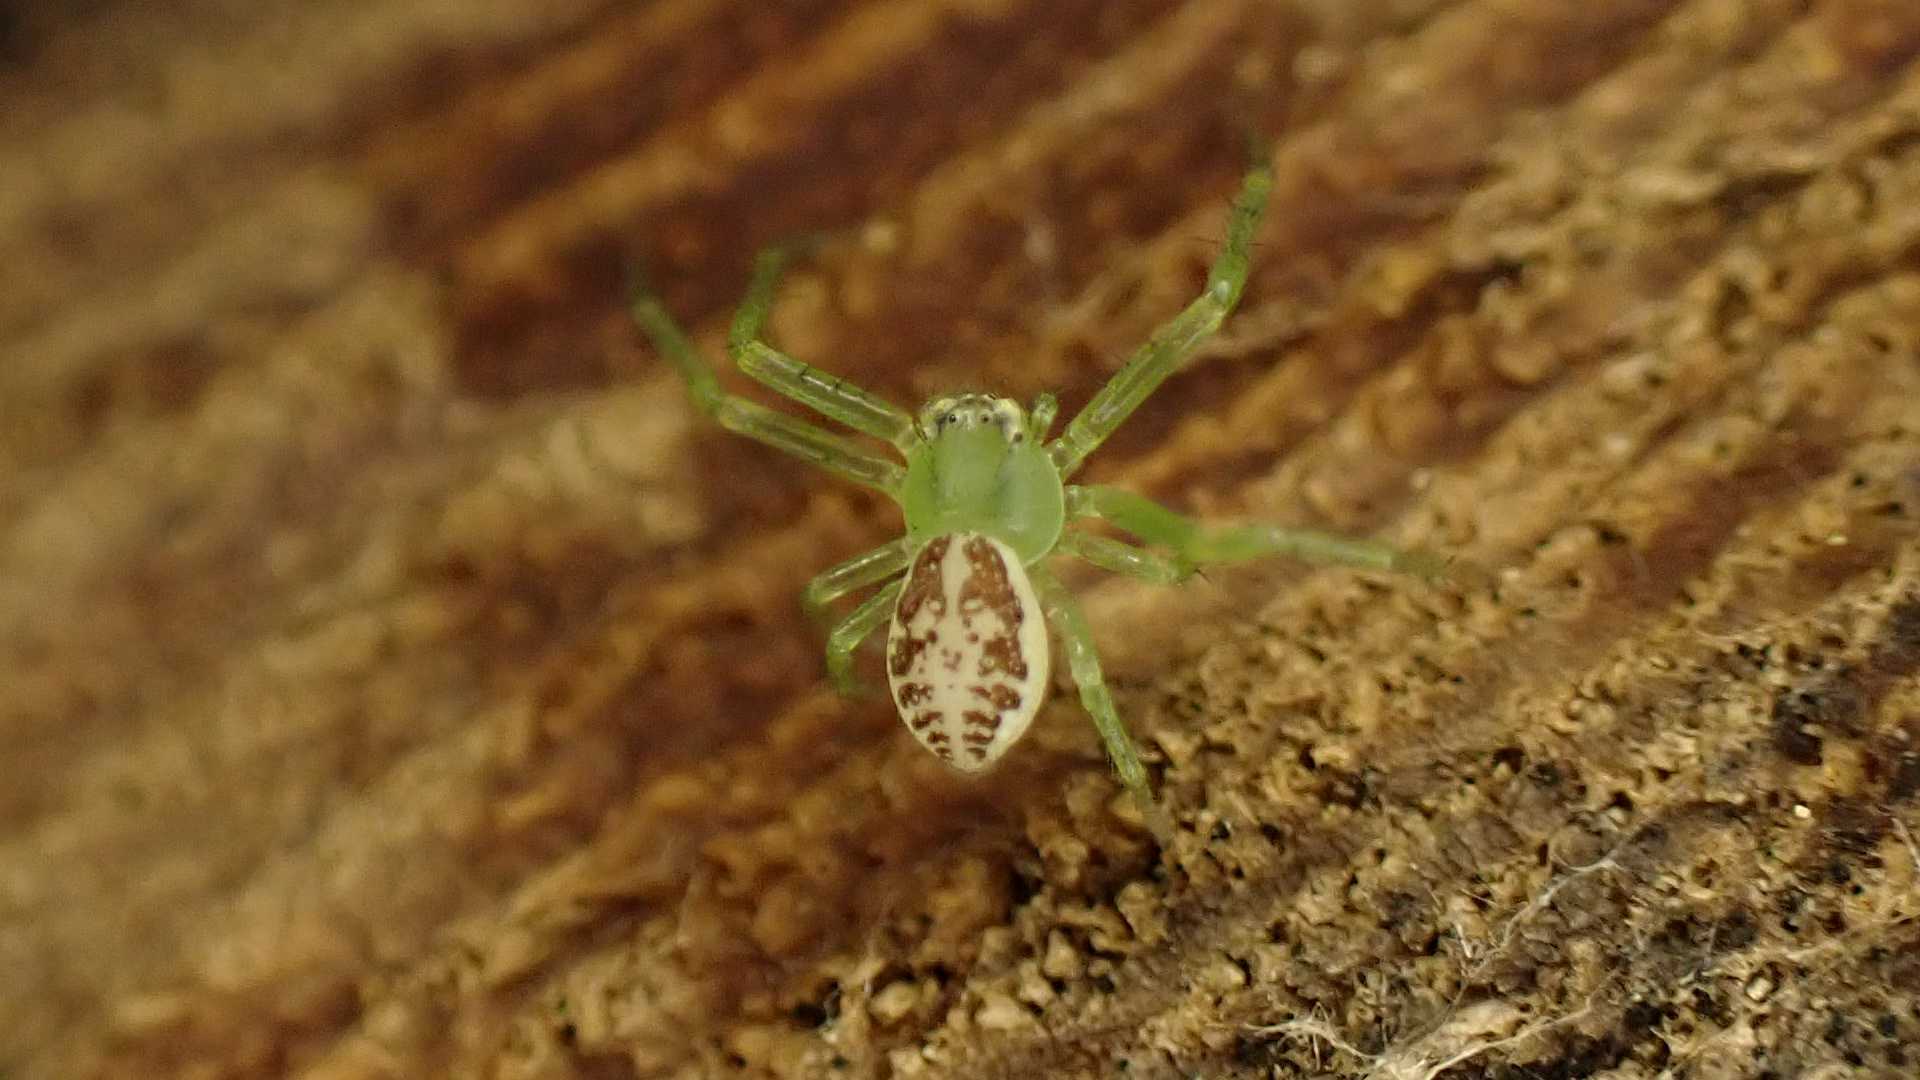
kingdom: Animalia
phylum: Arthropoda
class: Arachnida
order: Araneae
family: Thomisidae
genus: Diaea
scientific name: Diaea dorsata
